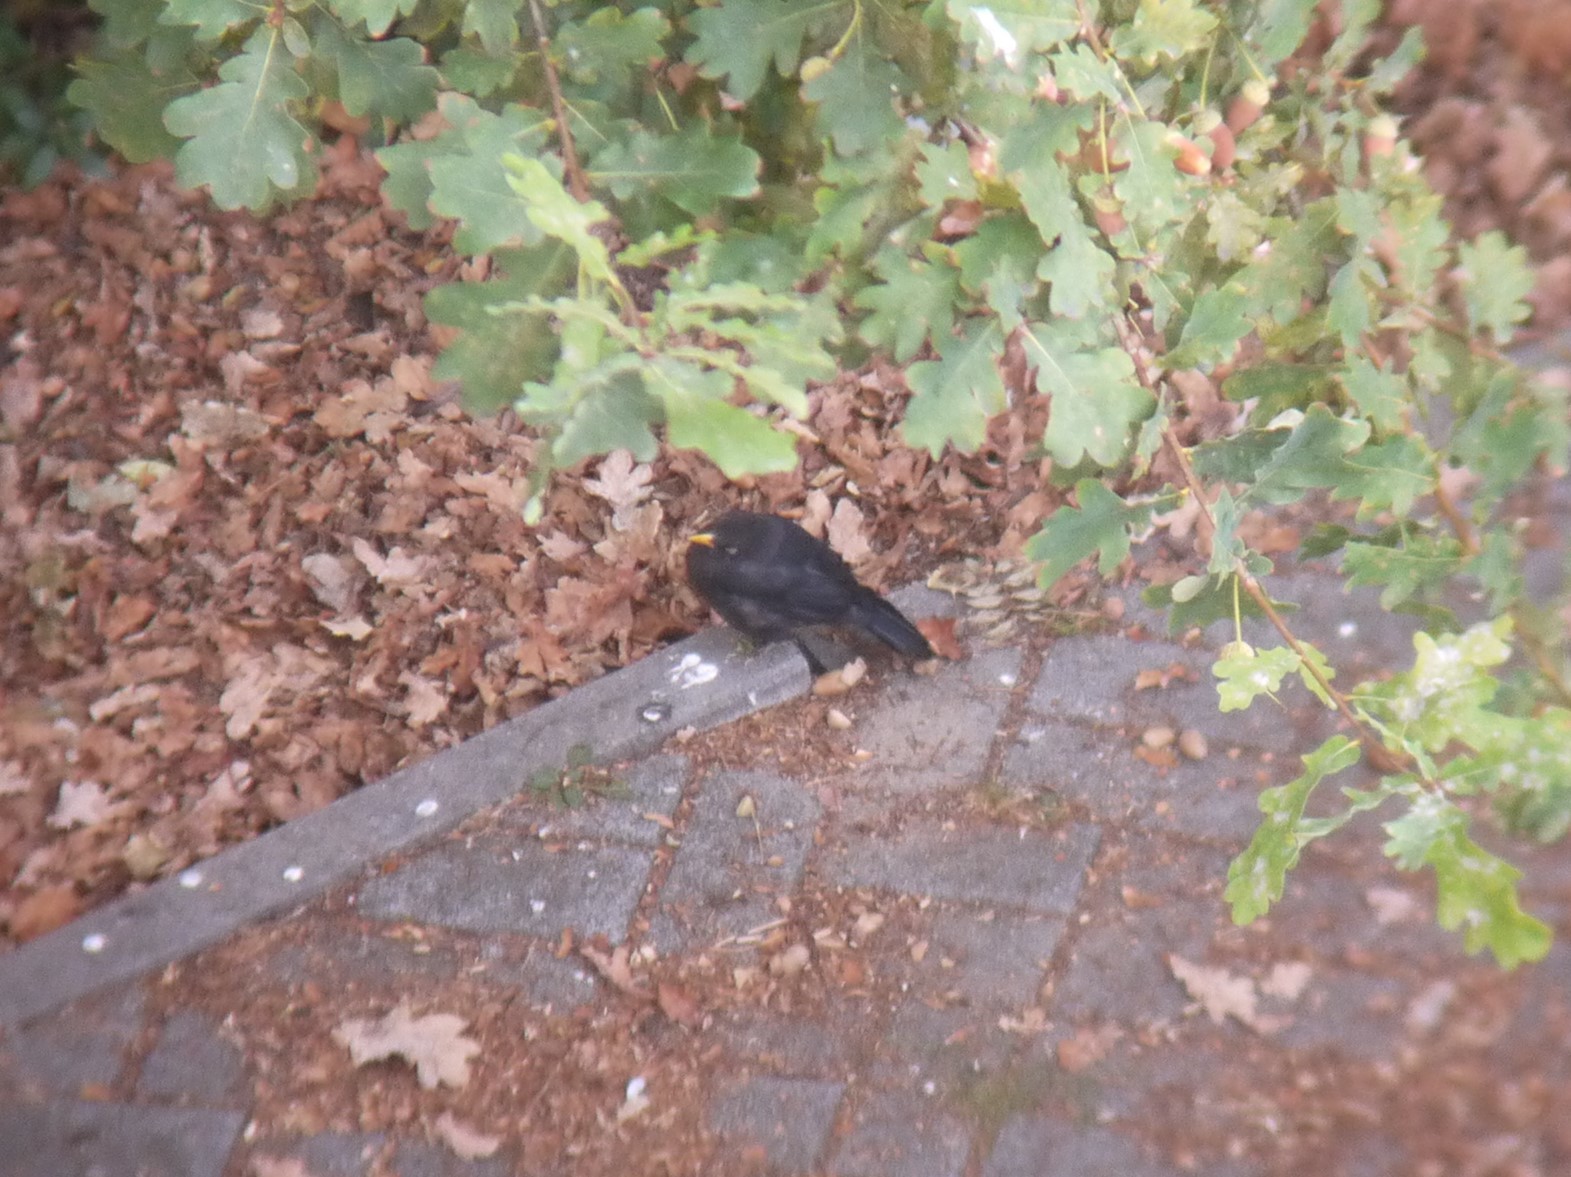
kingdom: Animalia
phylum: Chordata
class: Aves
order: Passeriformes
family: Turdidae
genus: Turdus
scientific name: Turdus merula
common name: Common blackbird
